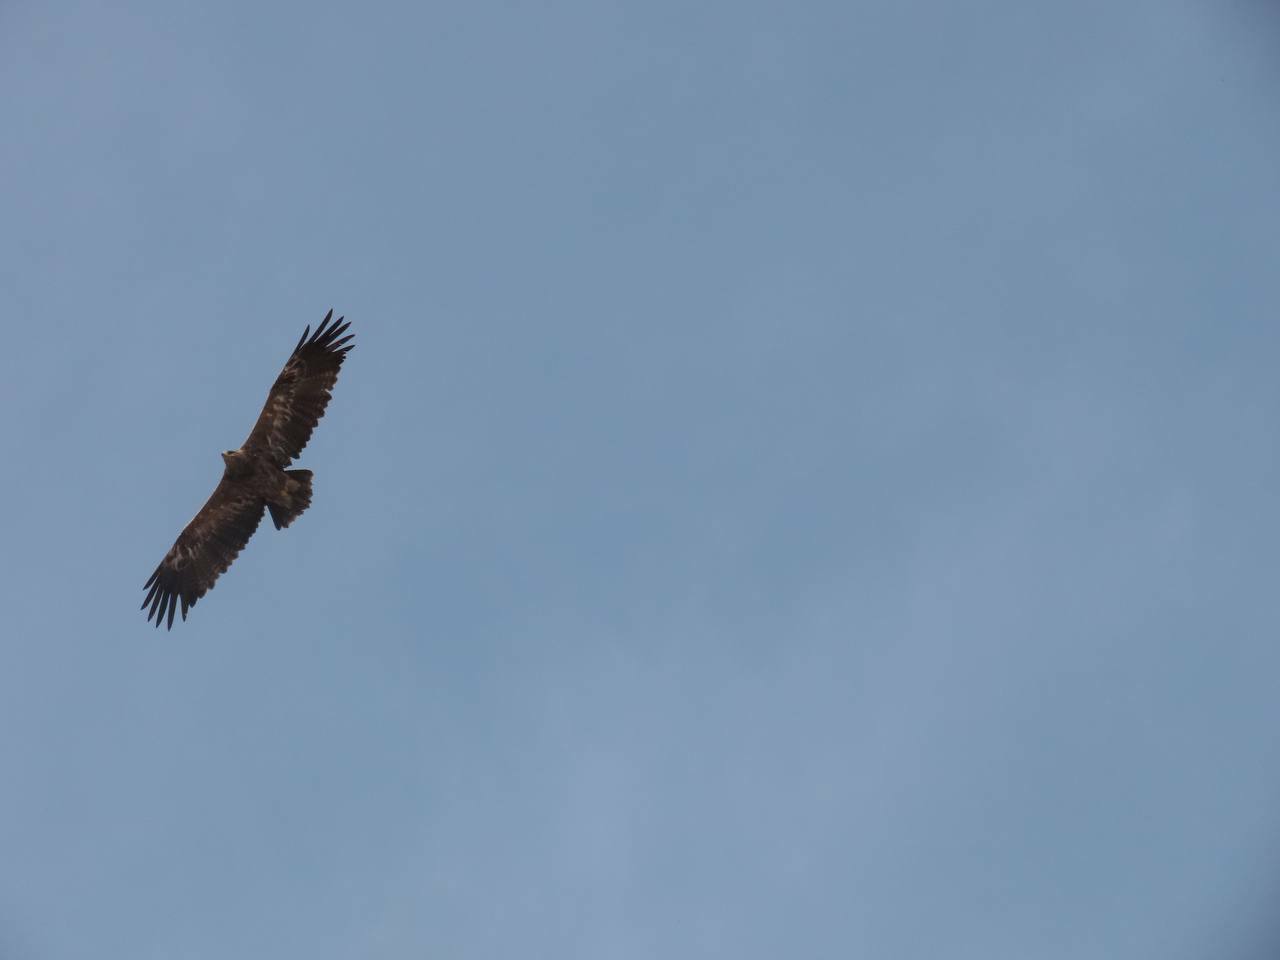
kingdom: Animalia
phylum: Chordata
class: Aves
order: Accipitriformes
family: Accipitridae
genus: Aquila
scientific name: Aquila nipalensis
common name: Steppe eagle
